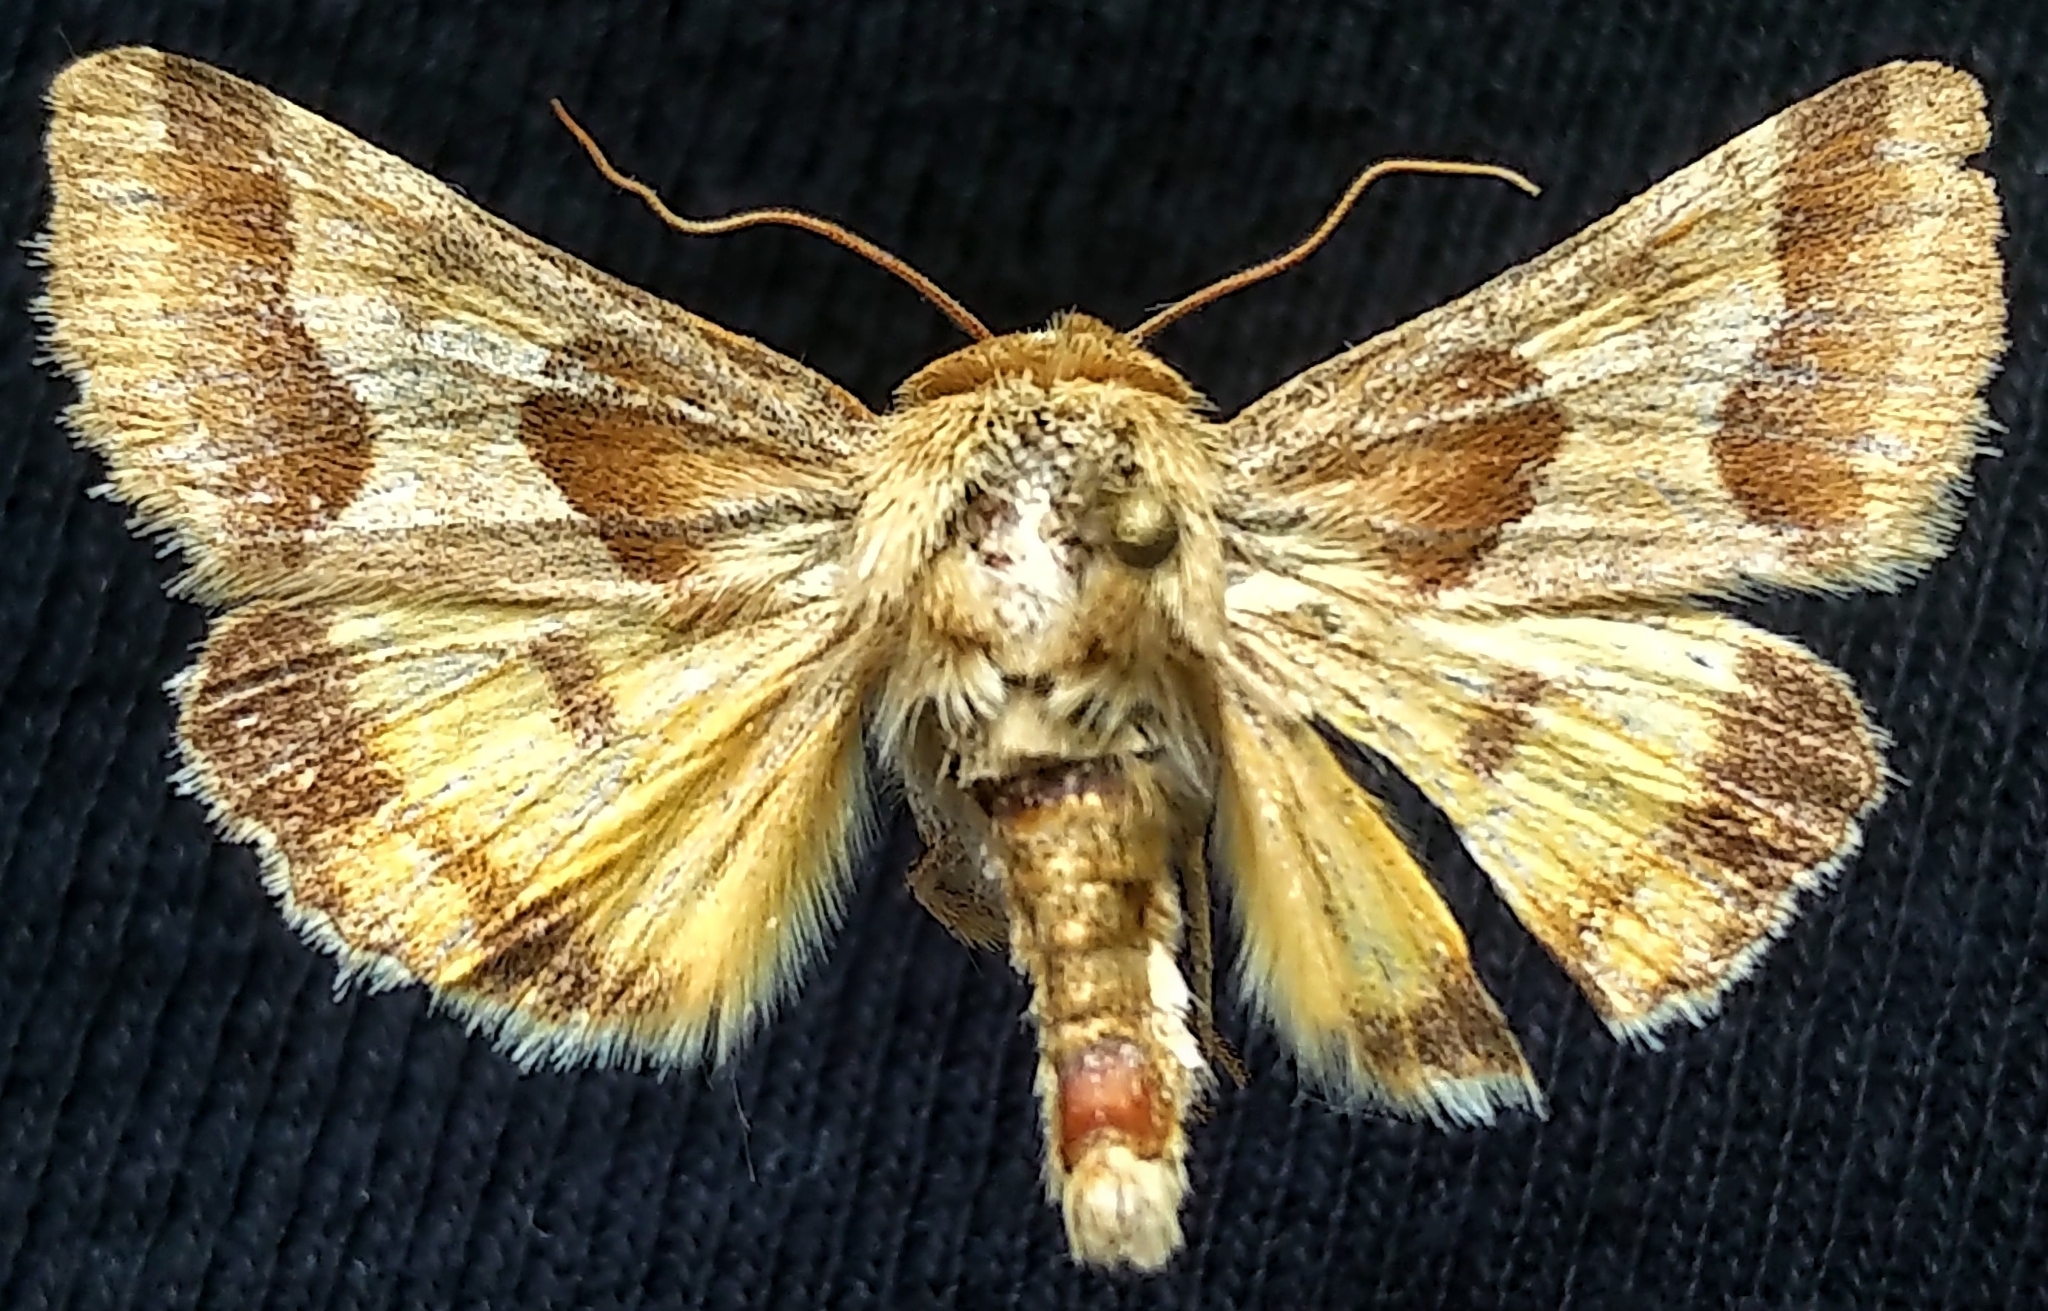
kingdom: Animalia
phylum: Arthropoda
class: Insecta
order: Lepidoptera
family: Noctuidae
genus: Schinia
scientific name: Schinia jaguarina
